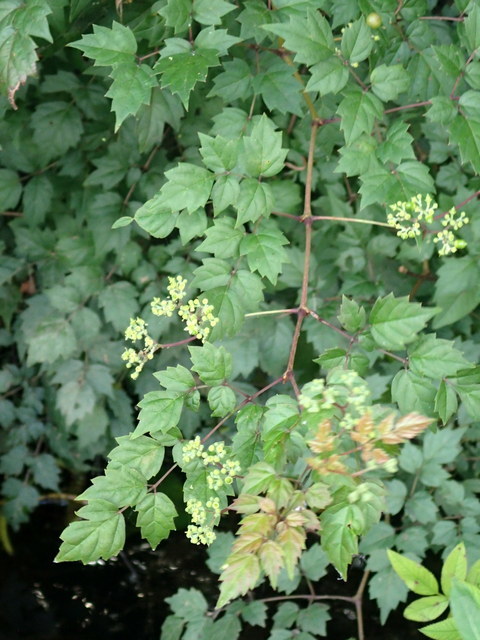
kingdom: Plantae
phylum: Tracheophyta
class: Magnoliopsida
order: Vitales
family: Vitaceae
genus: Nekemias
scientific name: Nekemias arborea
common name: Peppervine
